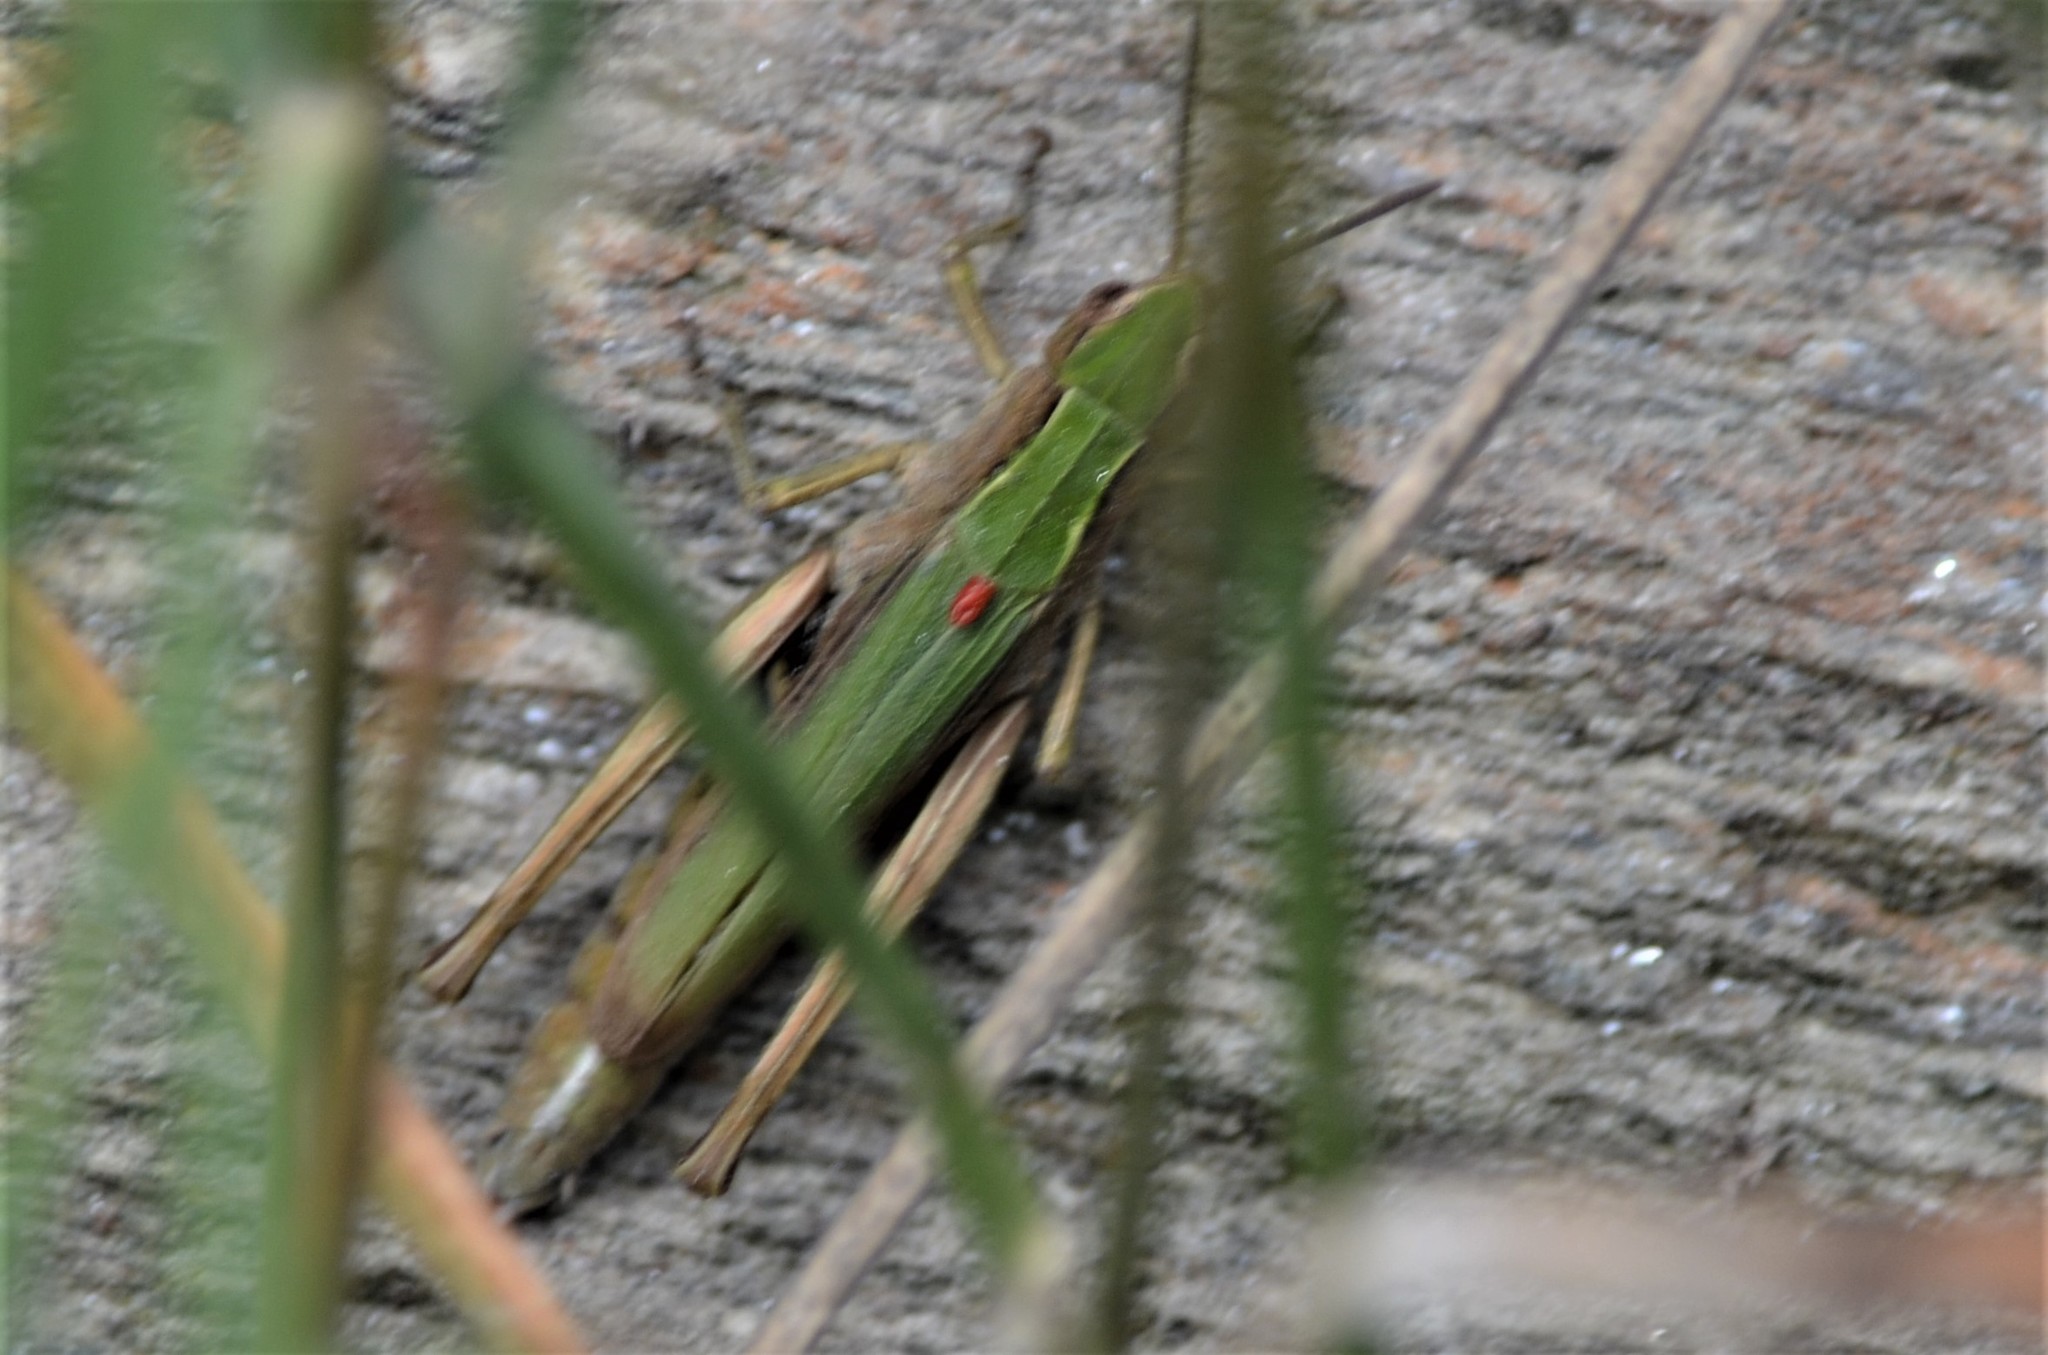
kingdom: Animalia
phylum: Arthropoda
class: Insecta
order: Orthoptera
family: Acrididae
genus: Chorthippus
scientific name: Chorthippus dorsatus
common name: Steppe grasshopper
